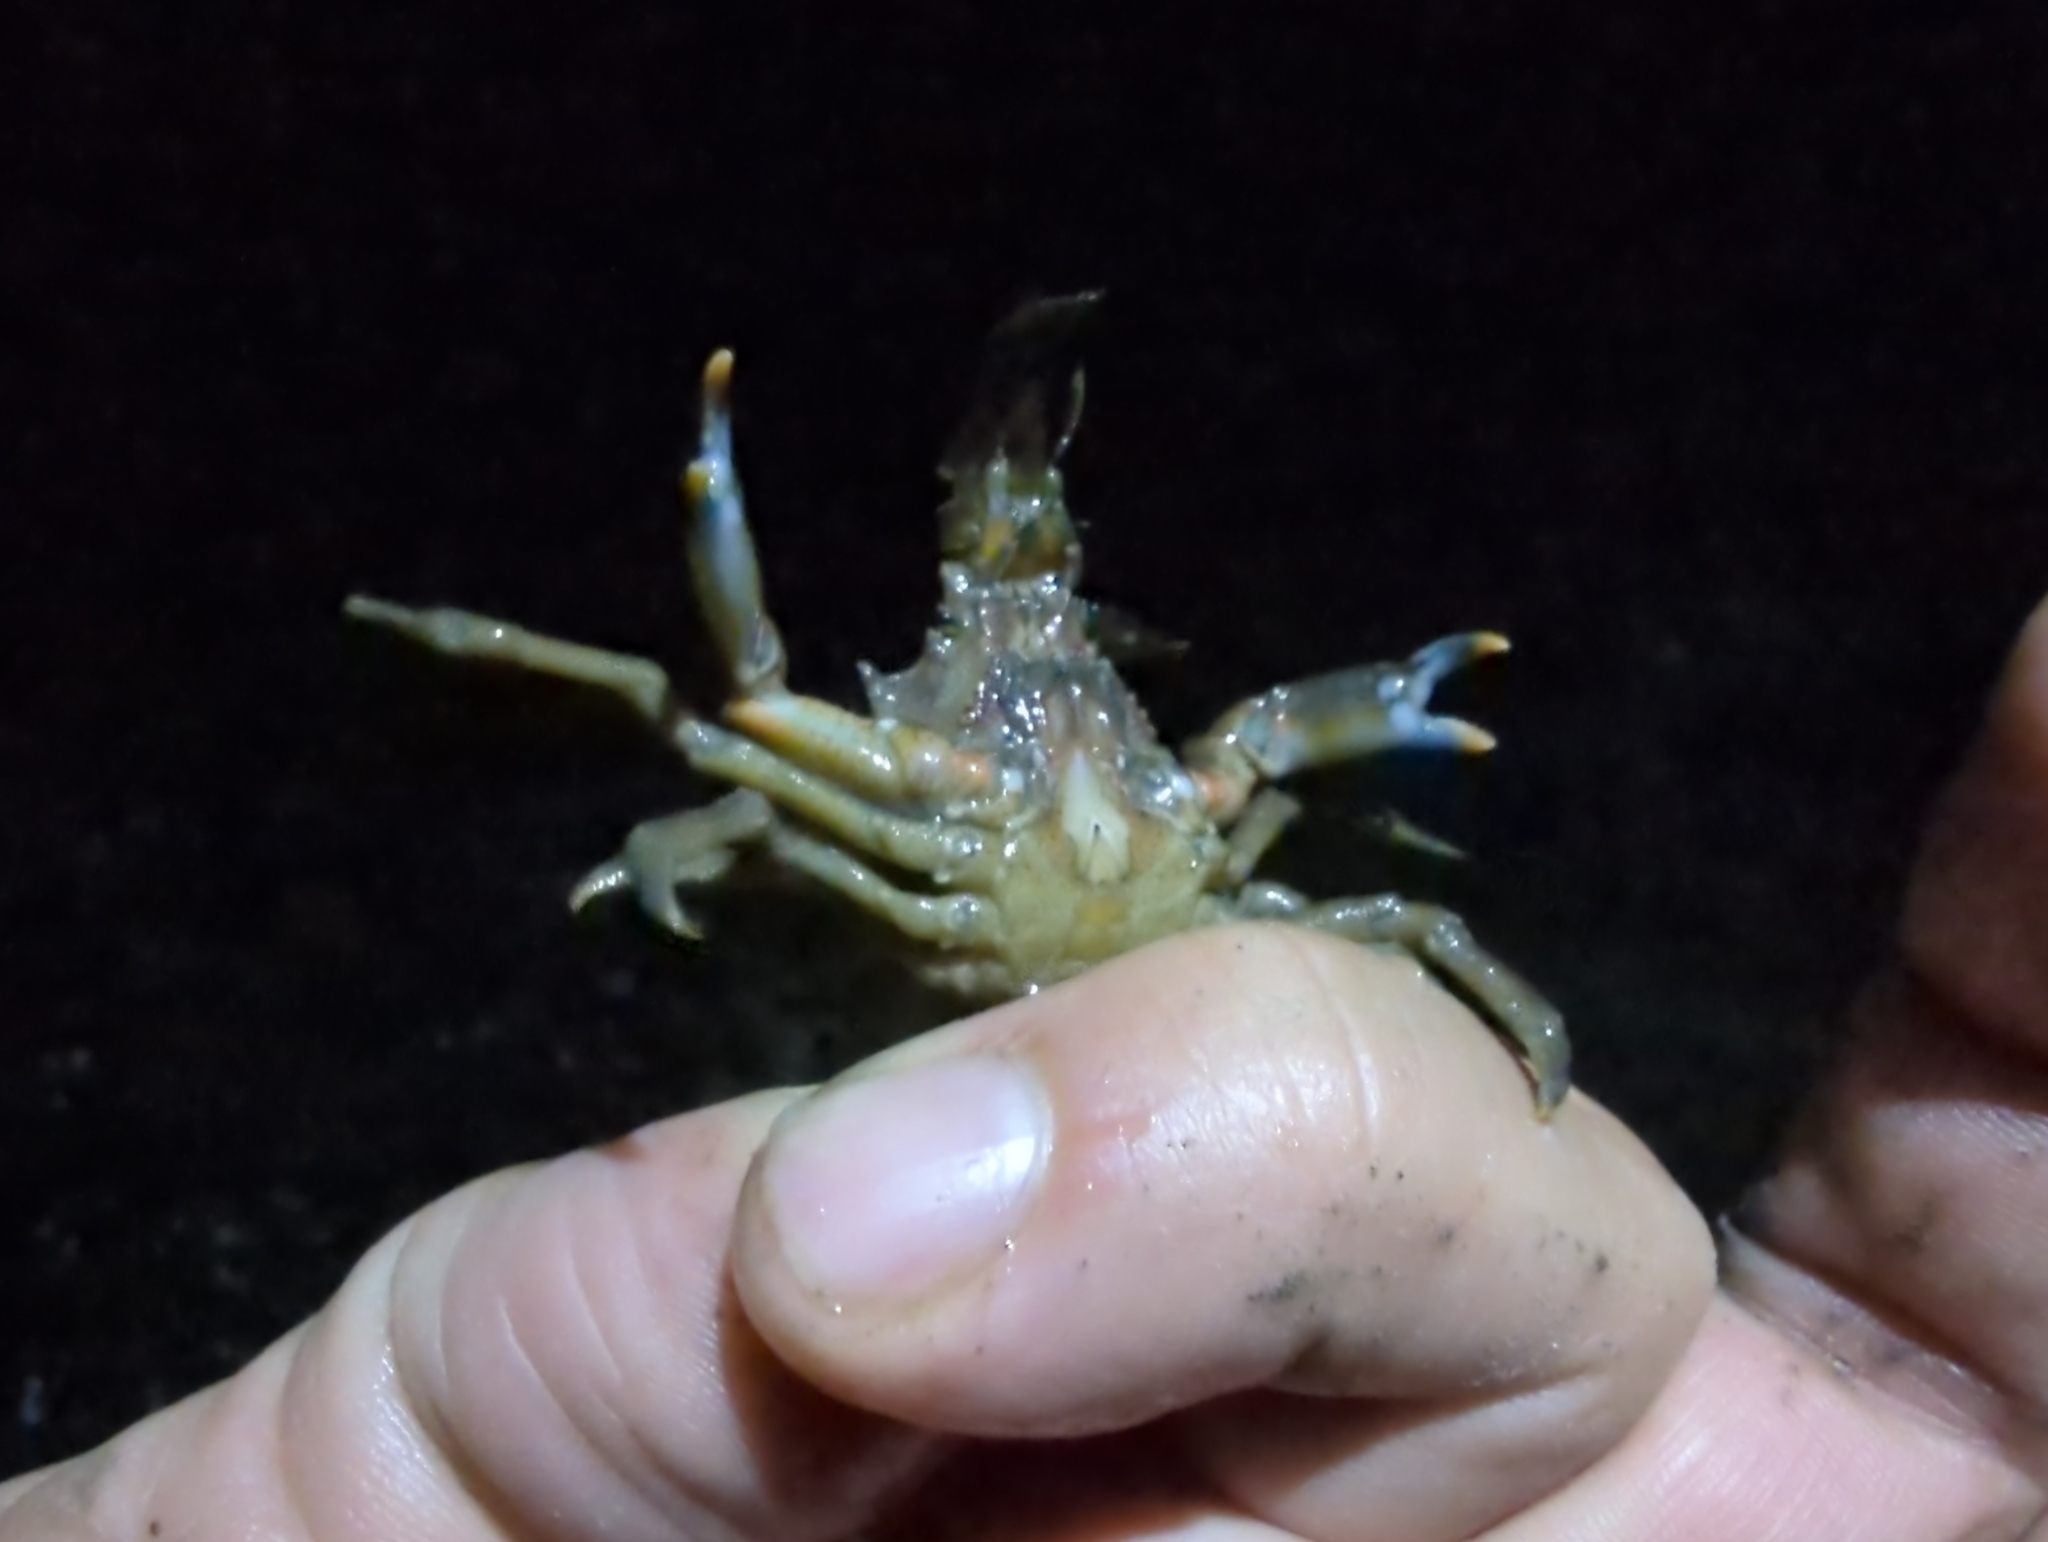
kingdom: Animalia
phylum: Arthropoda
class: Malacostraca
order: Decapoda
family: Epialtidae
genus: Pugettia
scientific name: Pugettia gracilis
